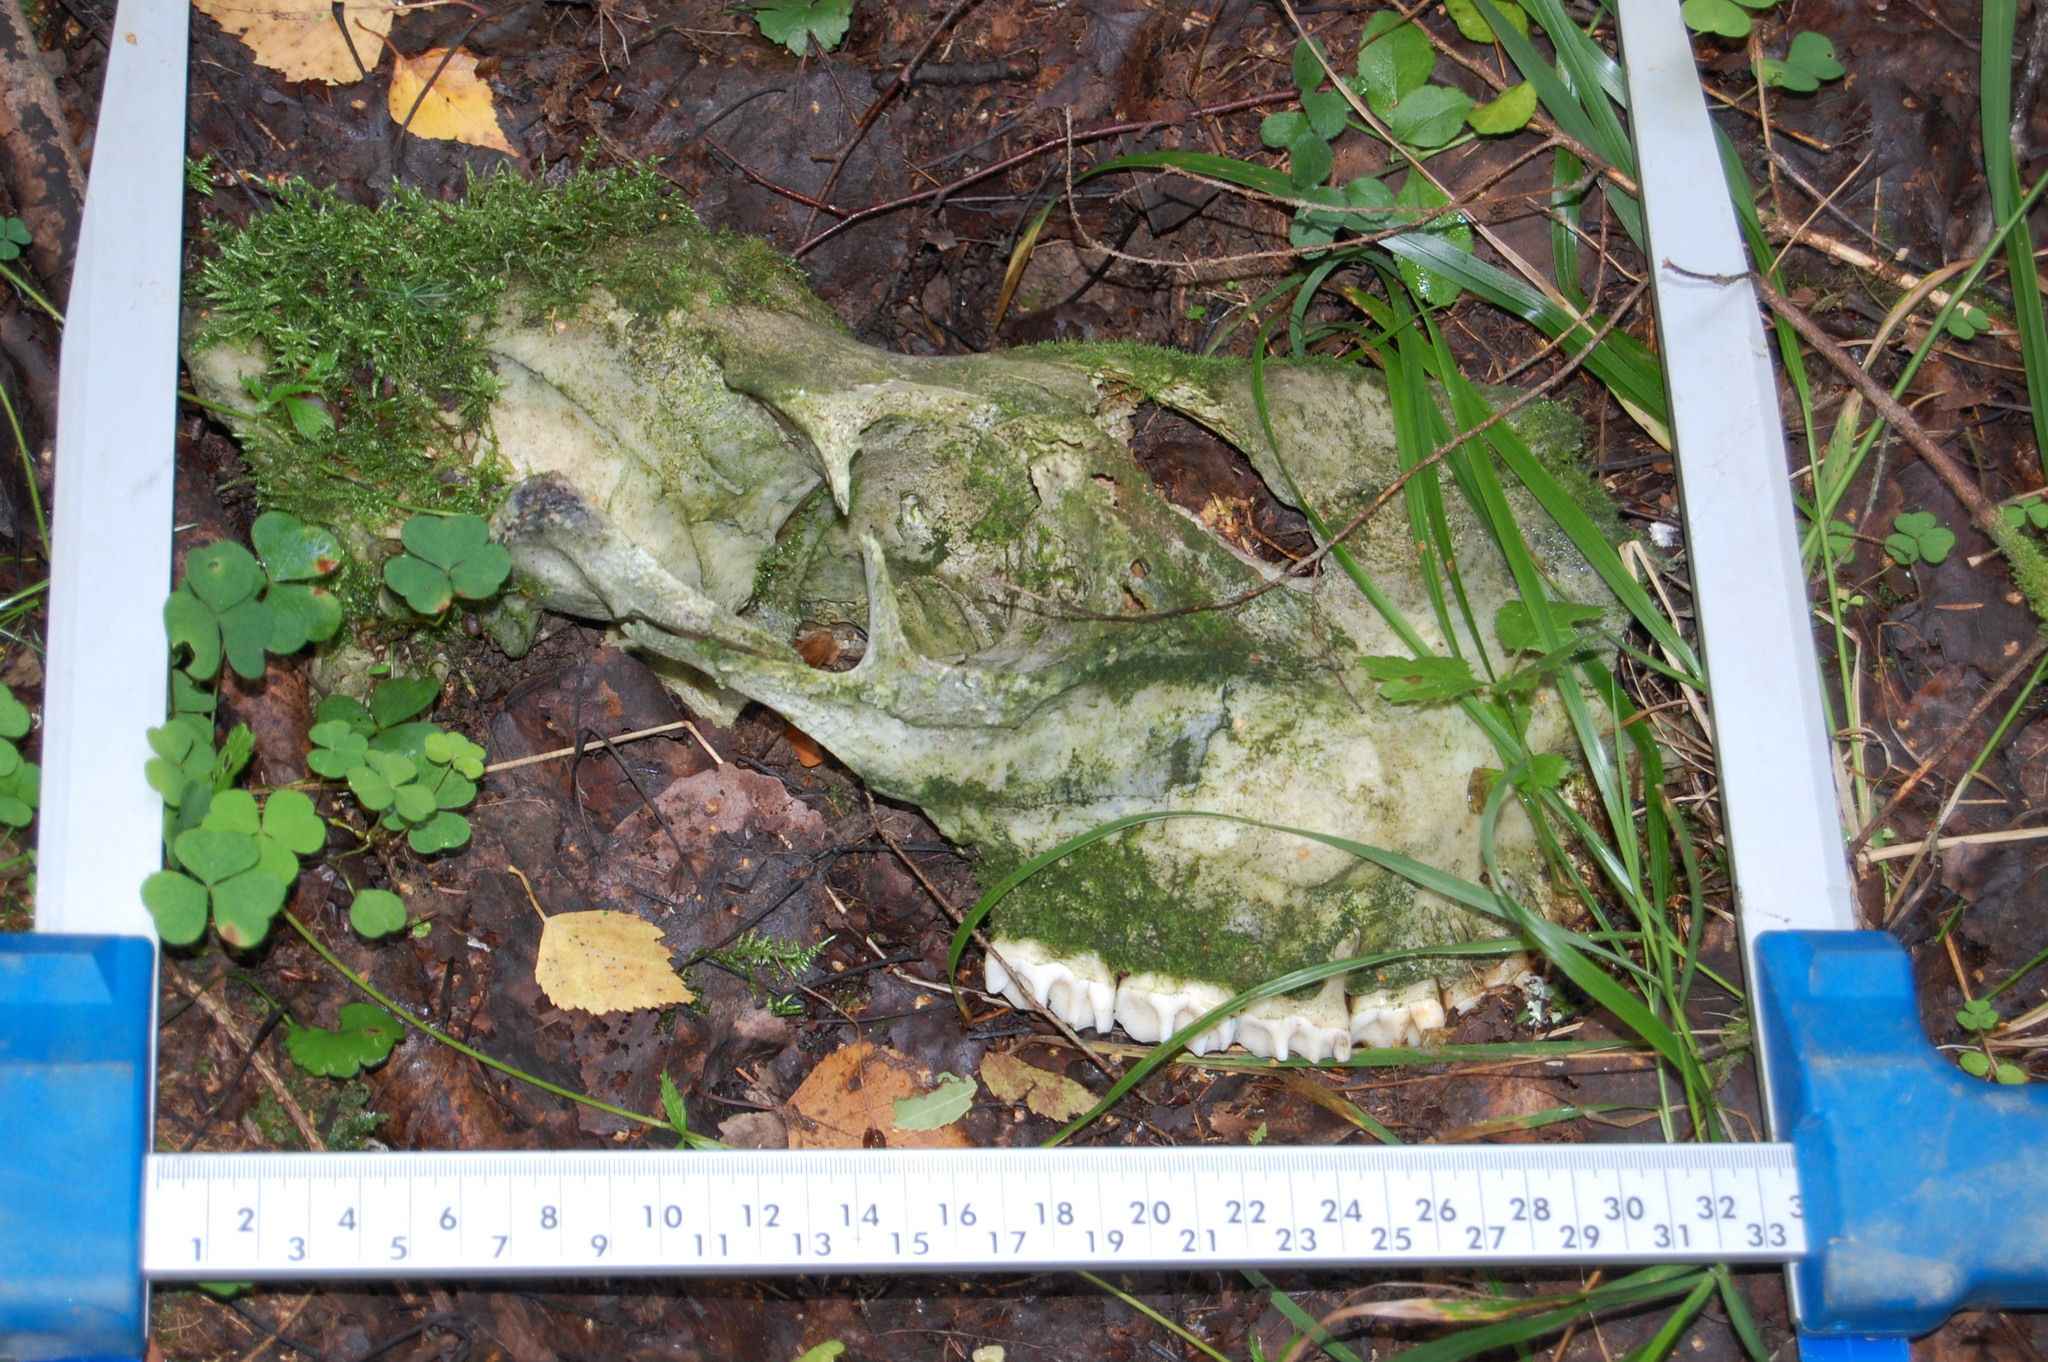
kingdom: Animalia
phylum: Chordata
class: Mammalia
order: Artiodactyla
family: Cervidae
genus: Alces
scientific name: Alces alces
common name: Moose
